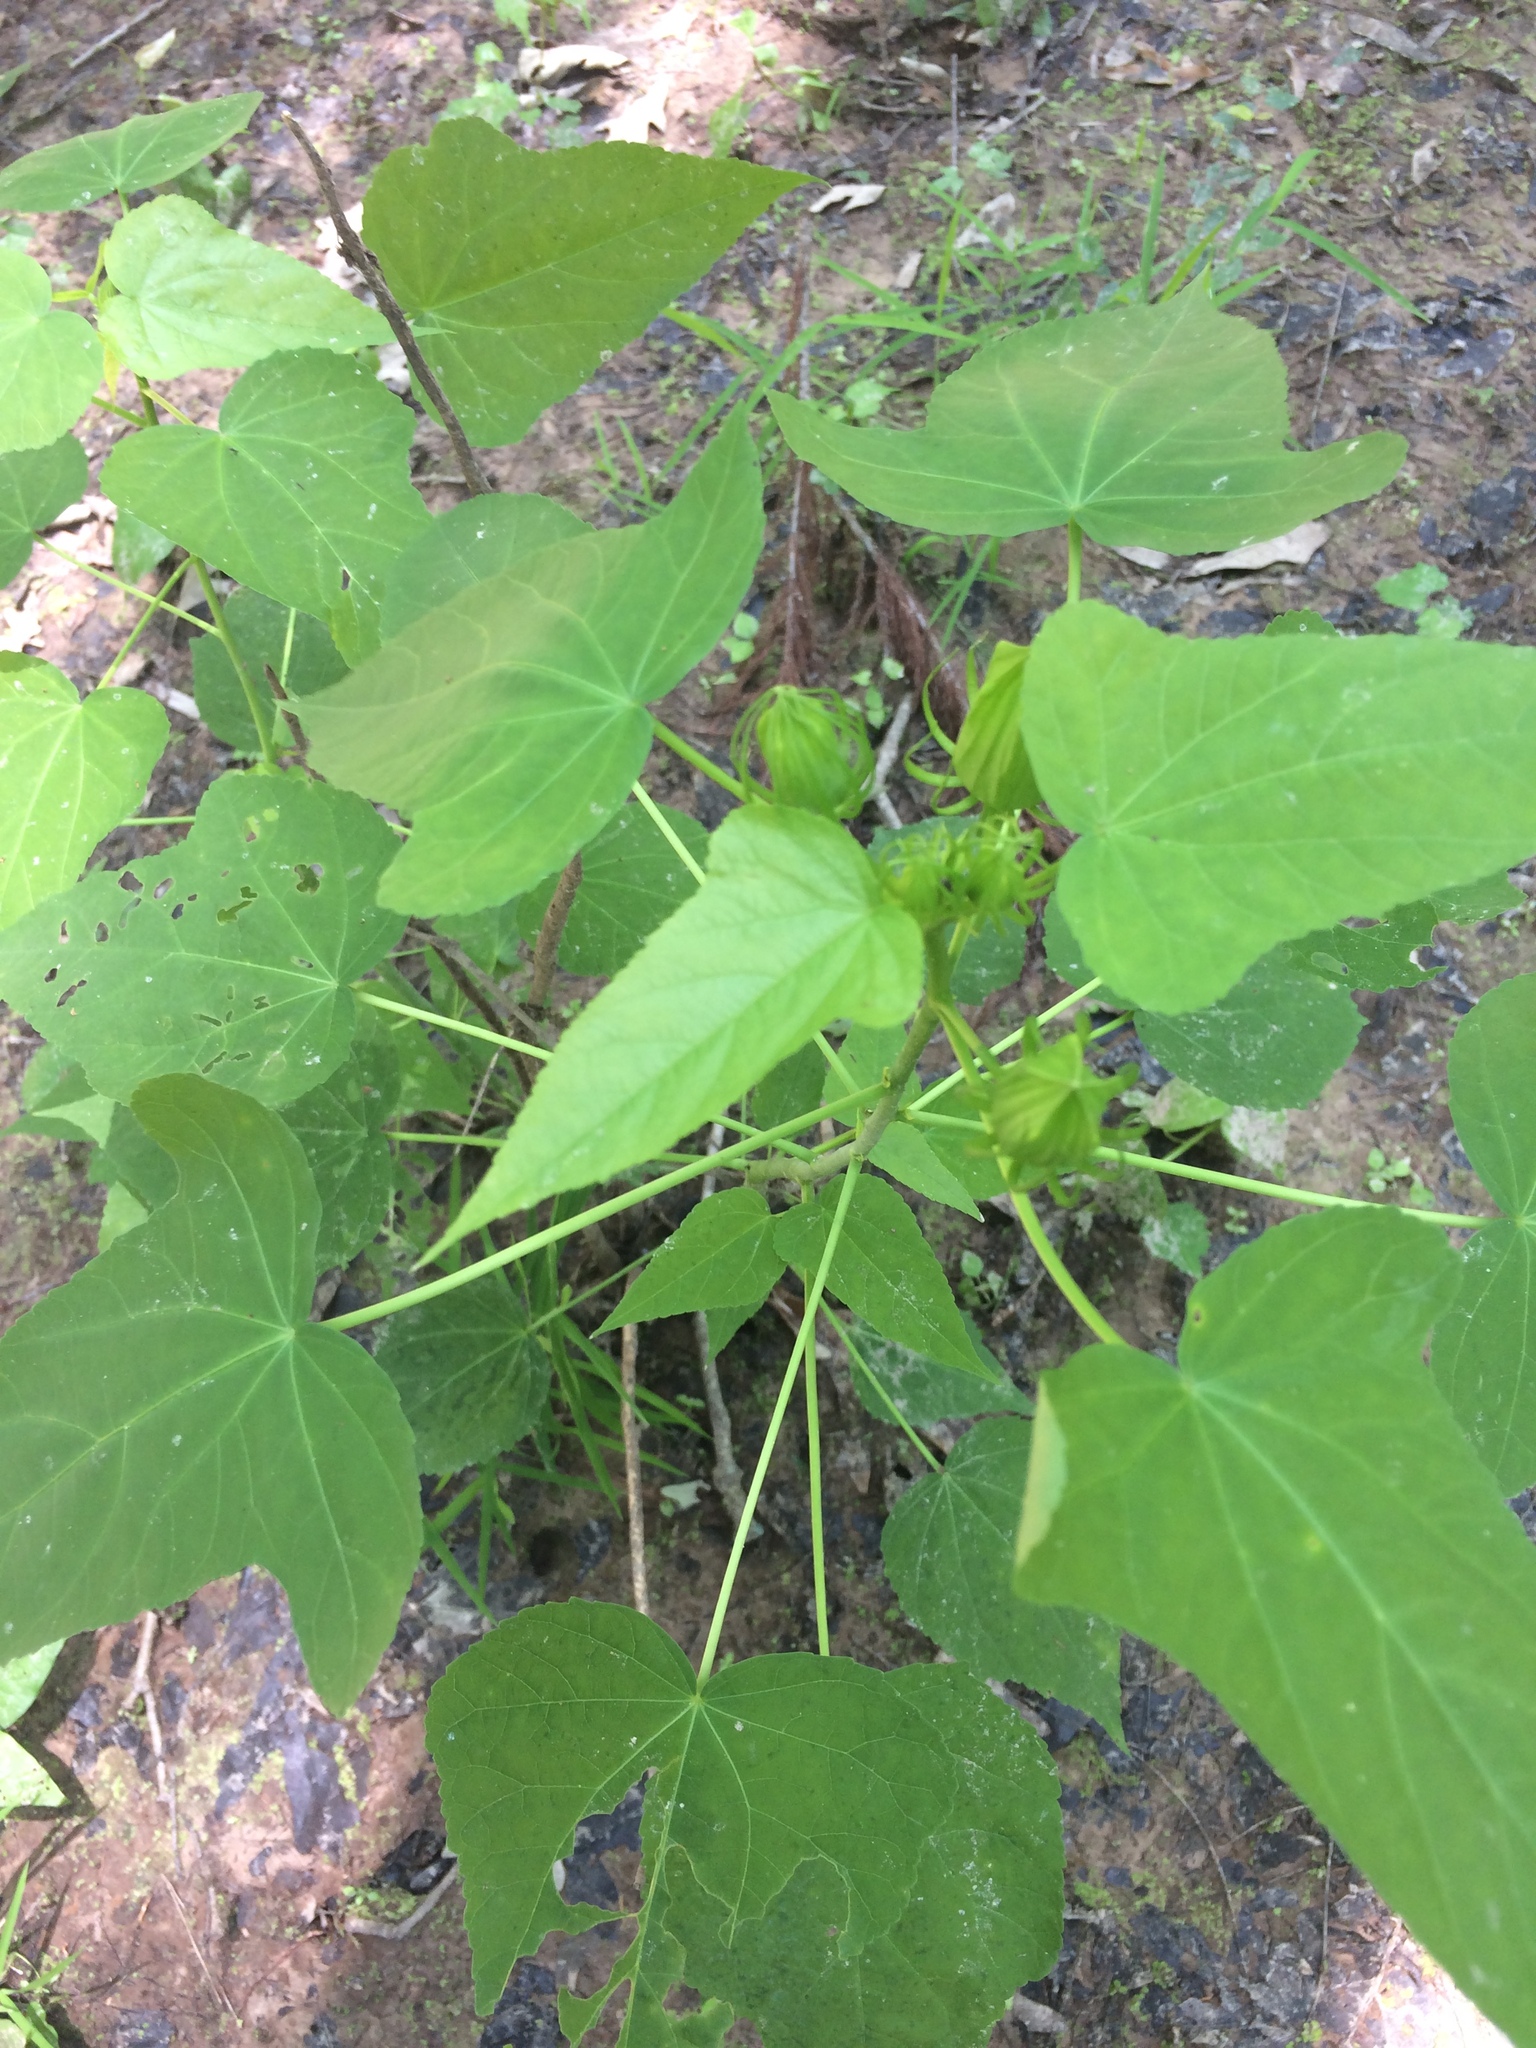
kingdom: Plantae
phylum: Tracheophyta
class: Magnoliopsida
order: Malvales
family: Malvaceae
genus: Hibiscus
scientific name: Hibiscus laevis
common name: Scarlet rose-mallow
